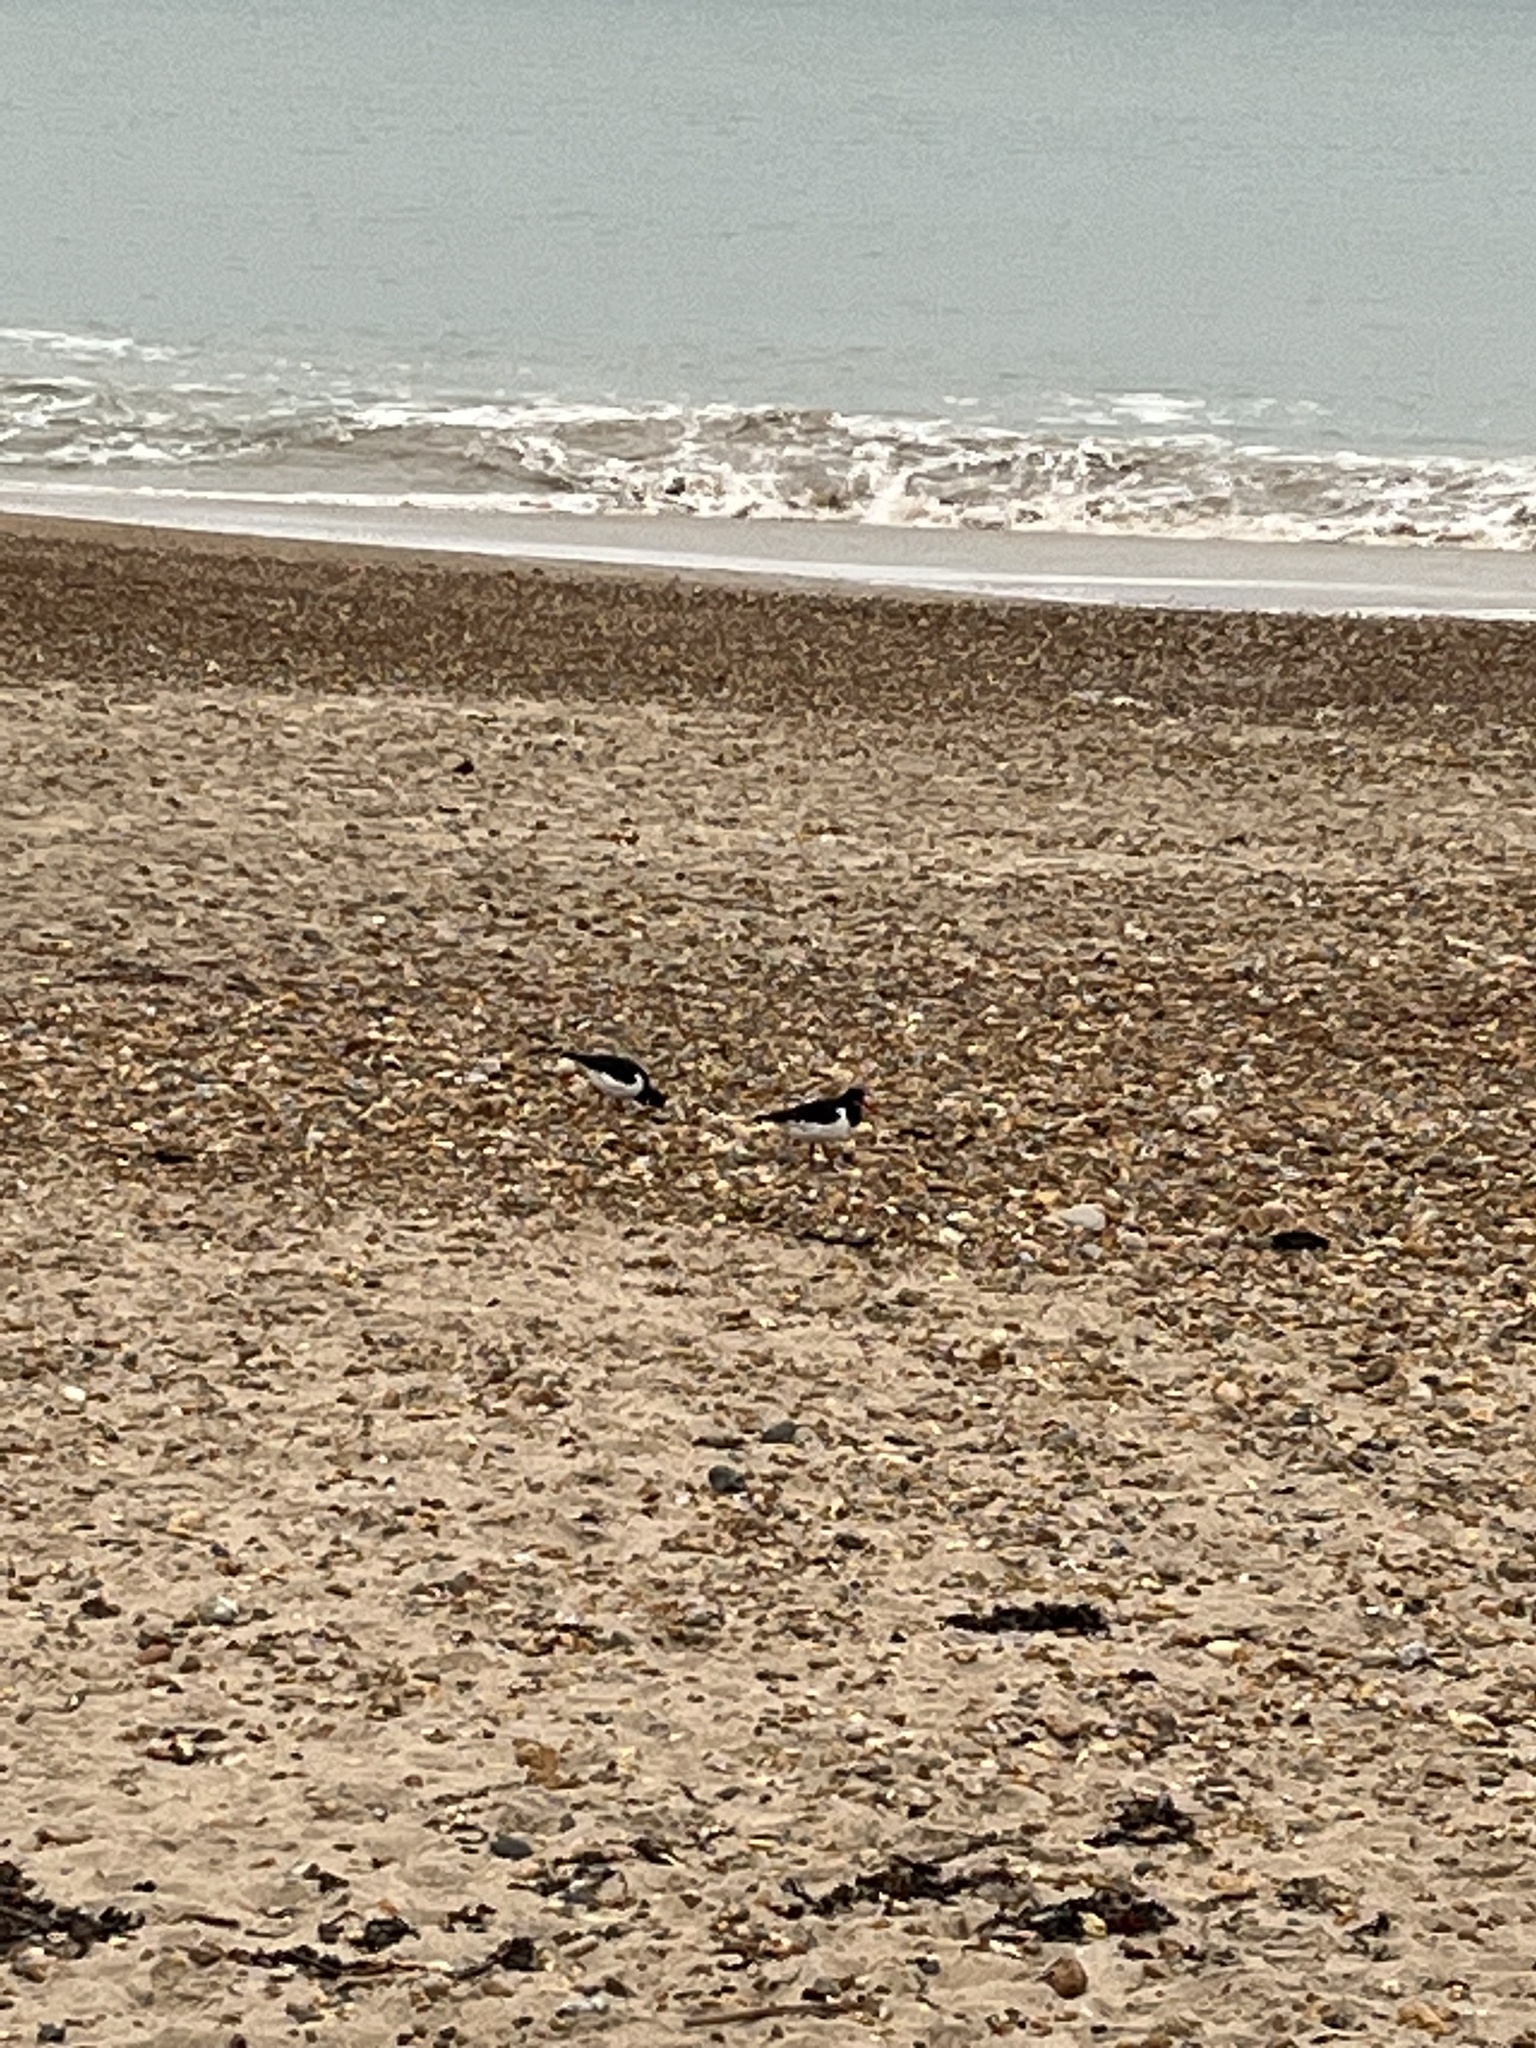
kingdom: Animalia
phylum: Chordata
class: Aves
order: Charadriiformes
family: Haematopodidae
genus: Haematopus
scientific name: Haematopus ostralegus
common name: Eurasian oystercatcher
